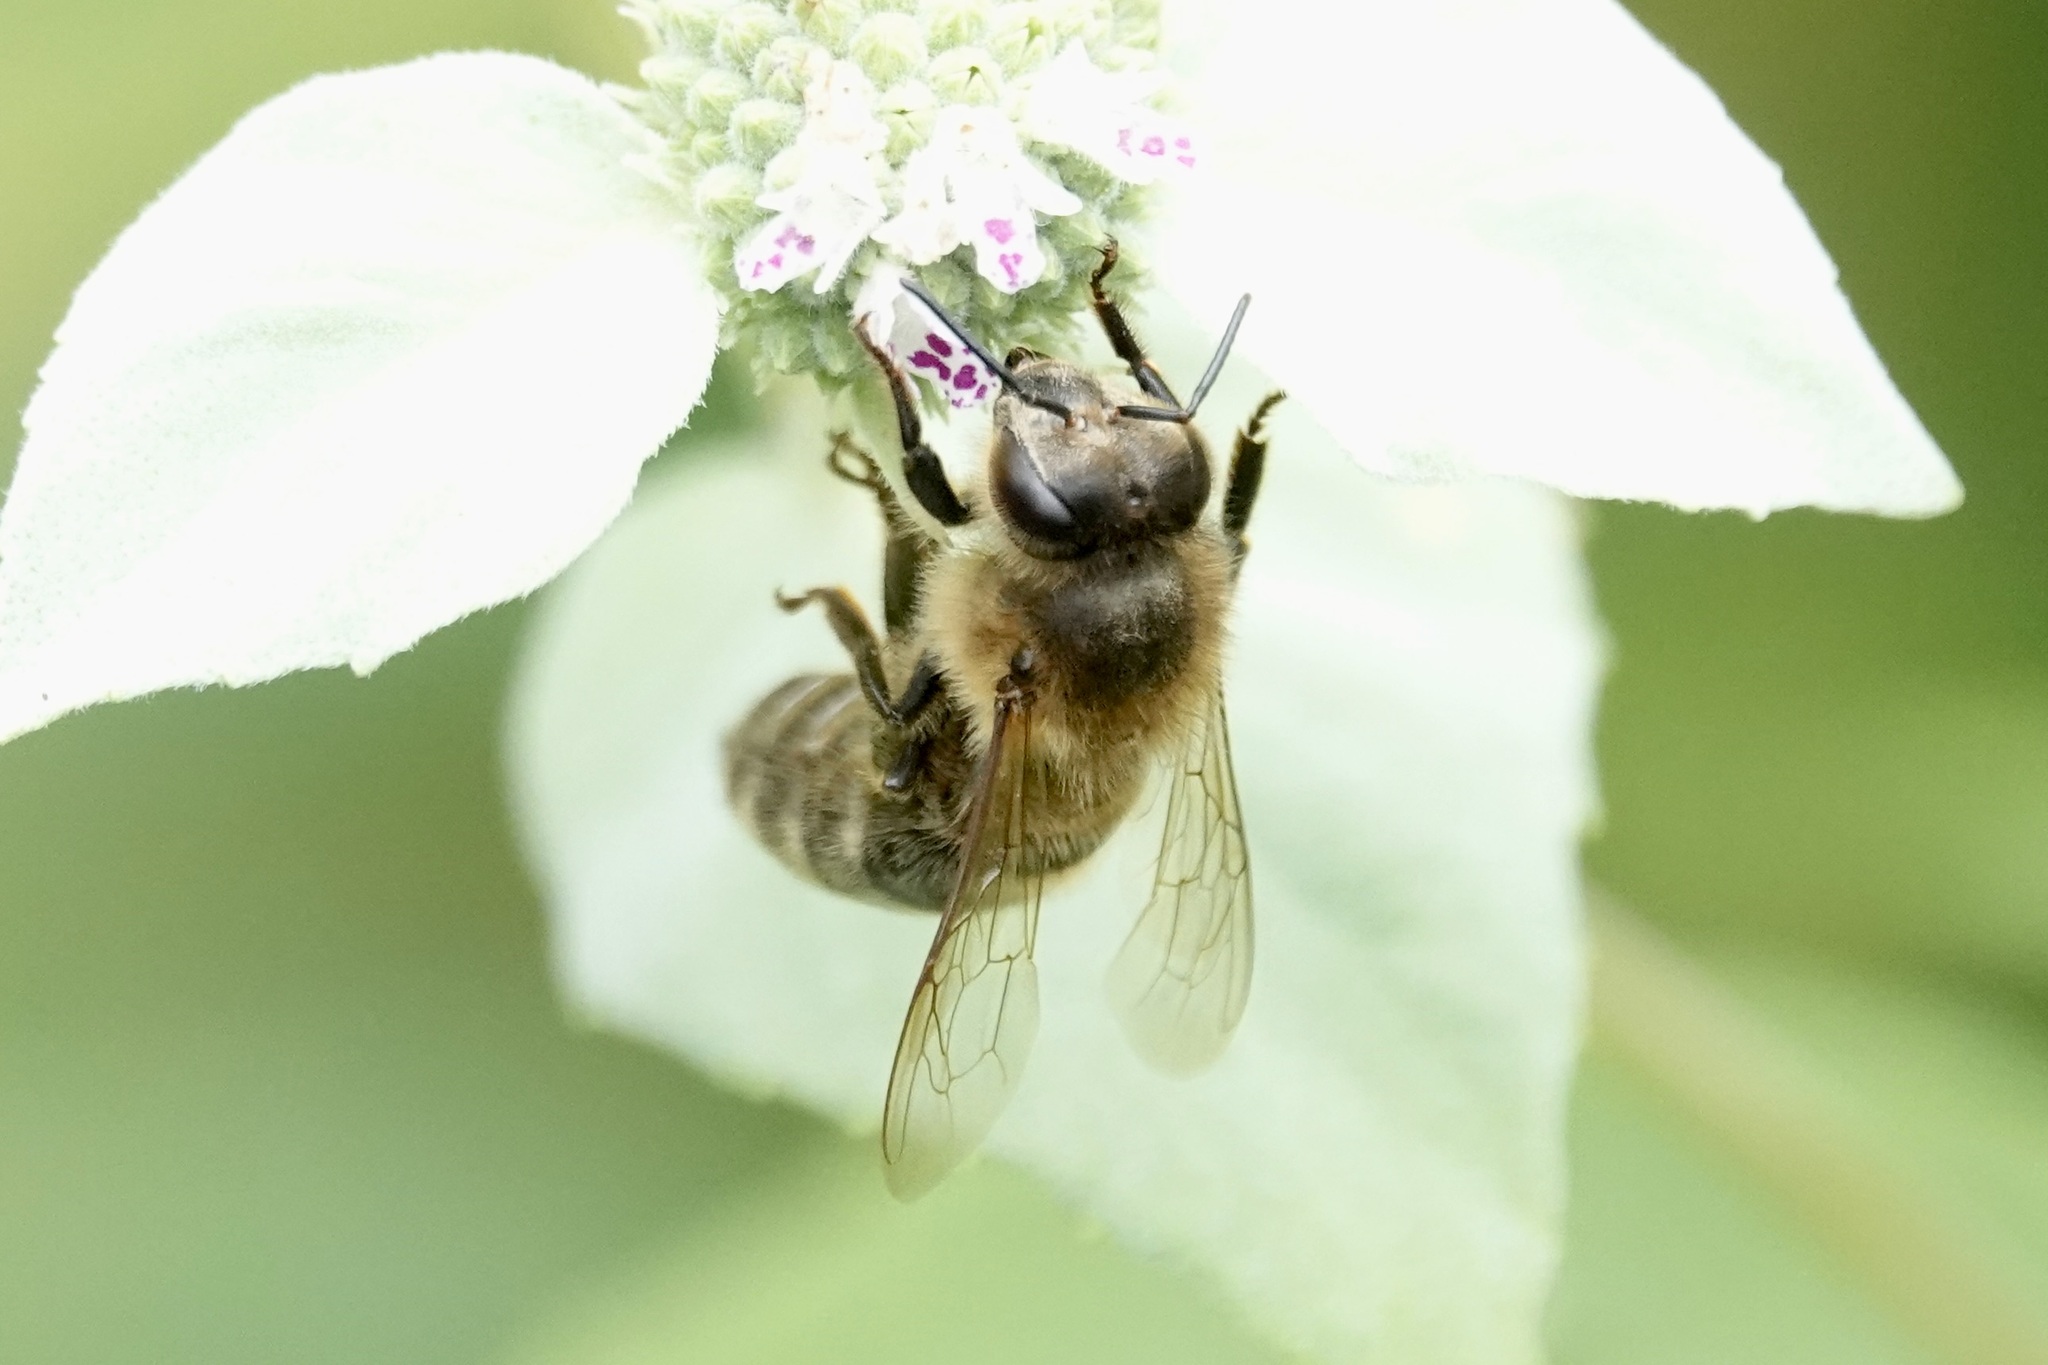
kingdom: Animalia
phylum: Arthropoda
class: Insecta
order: Hymenoptera
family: Apidae
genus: Apis
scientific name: Apis mellifera
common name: Honey bee
